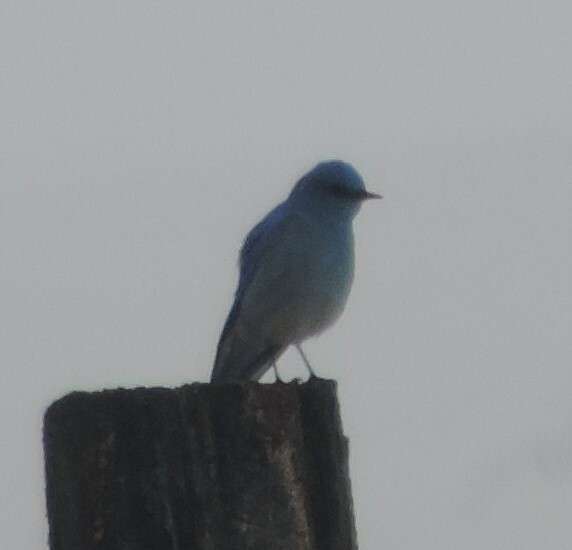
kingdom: Animalia
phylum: Chordata
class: Aves
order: Passeriformes
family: Turdidae
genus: Sialia
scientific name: Sialia currucoides
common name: Mountain bluebird
